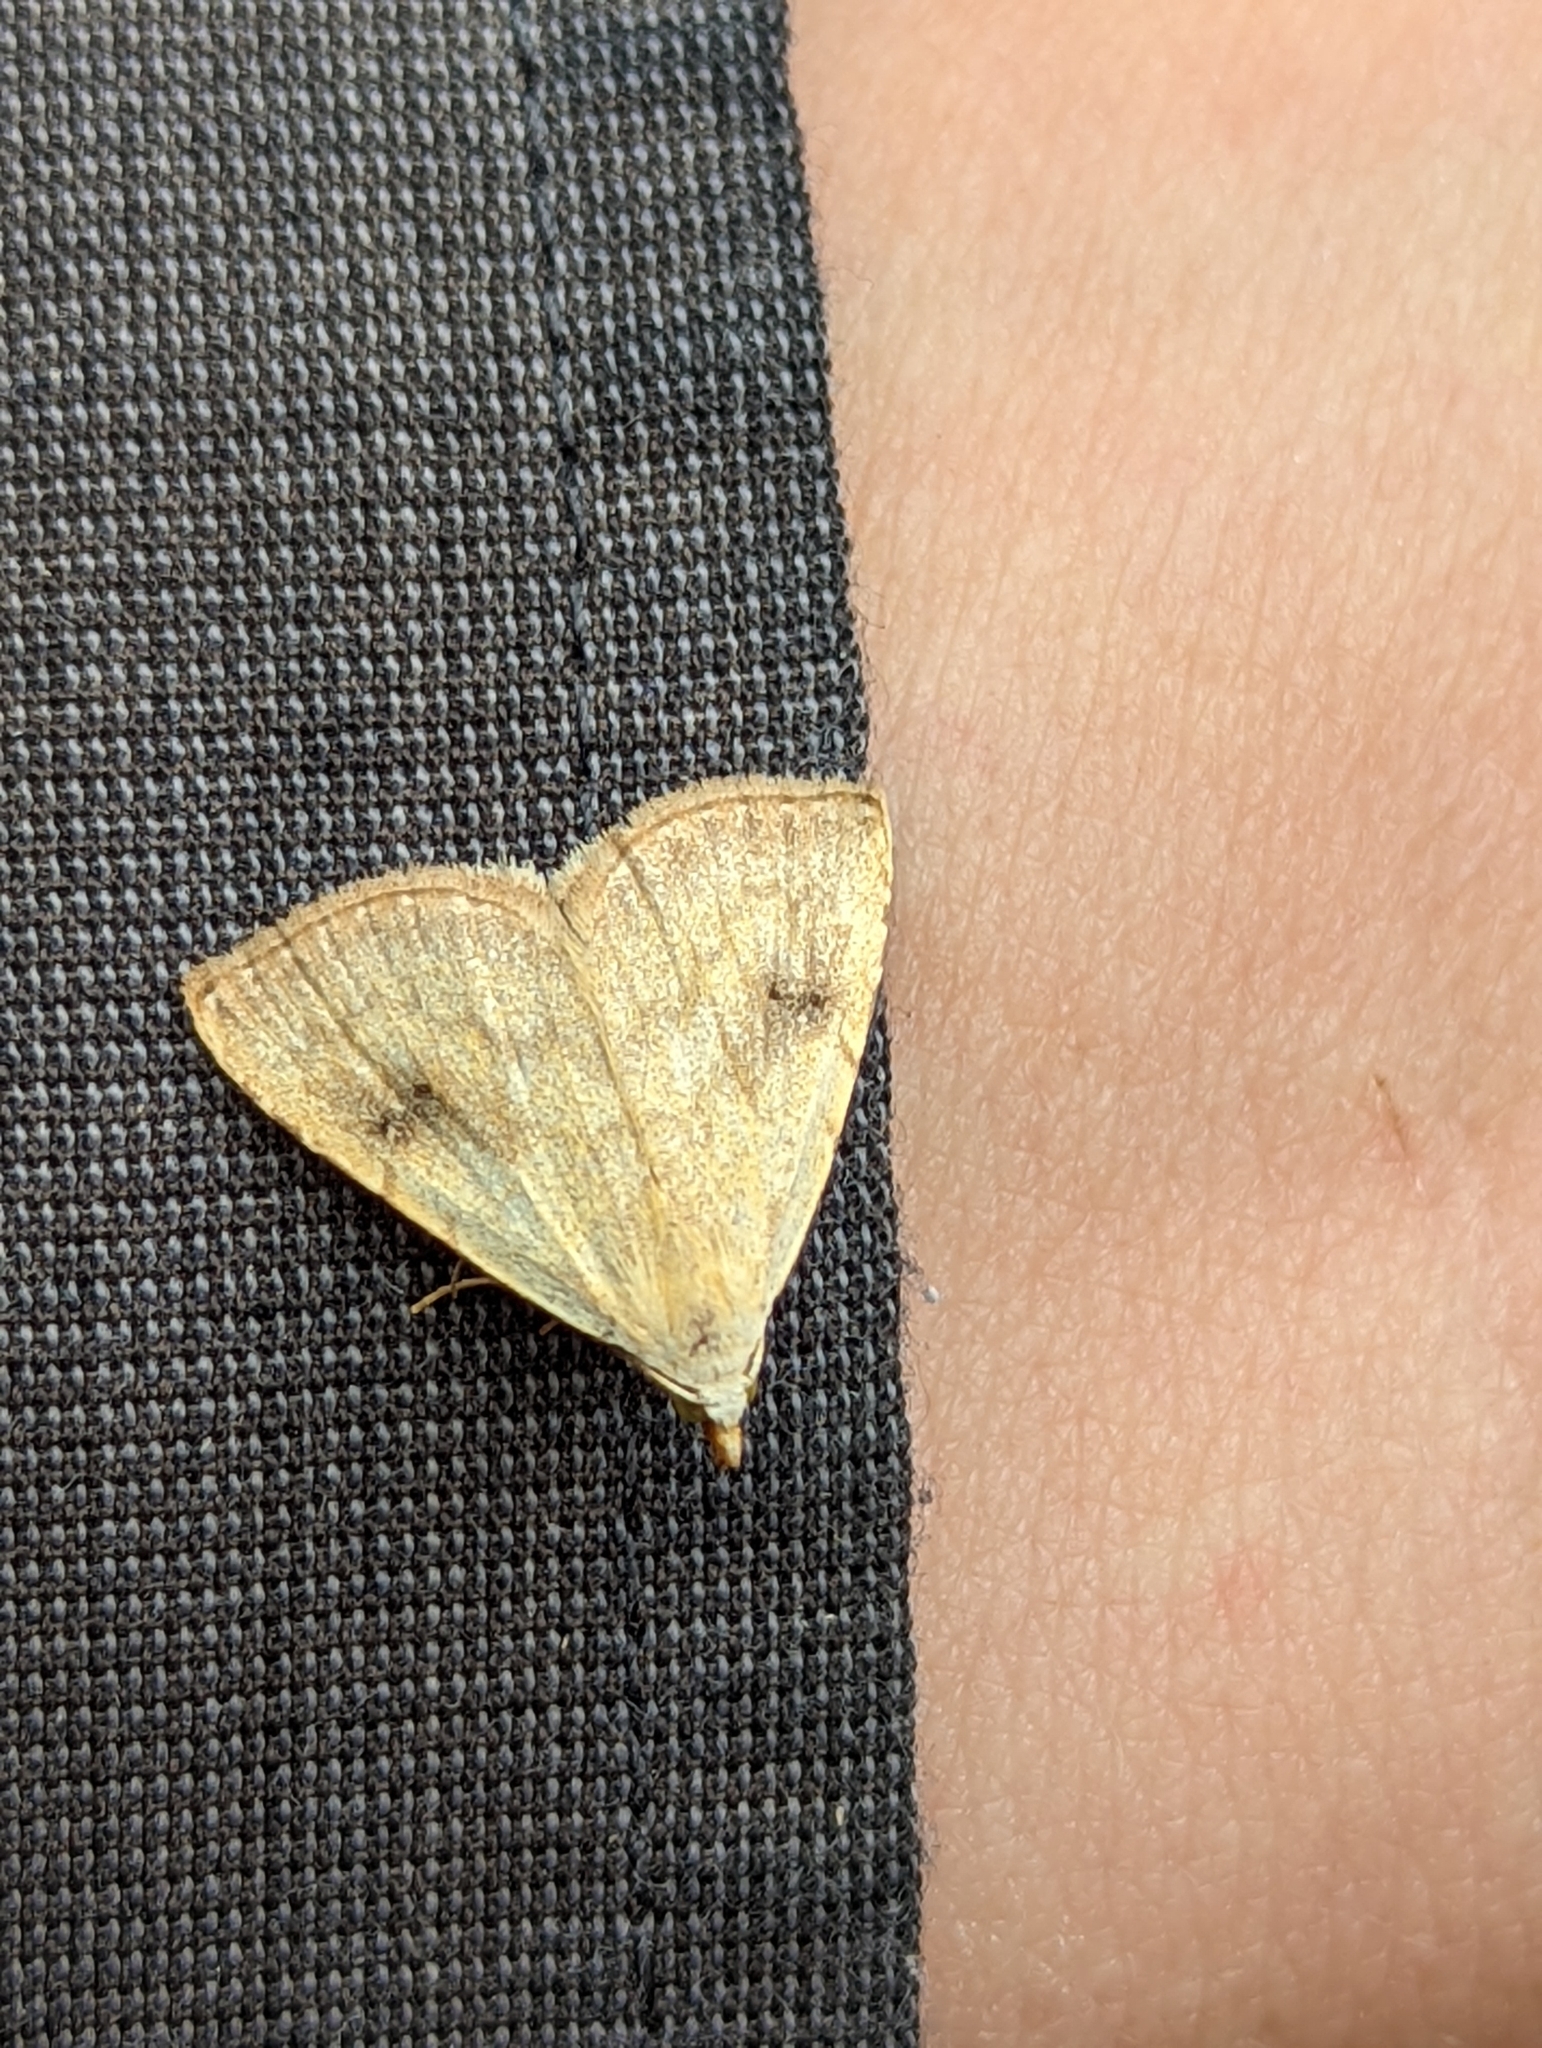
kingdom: Animalia
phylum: Arthropoda
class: Insecta
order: Lepidoptera
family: Erebidae
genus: Rivula
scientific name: Rivula sericealis
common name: Straw dot
